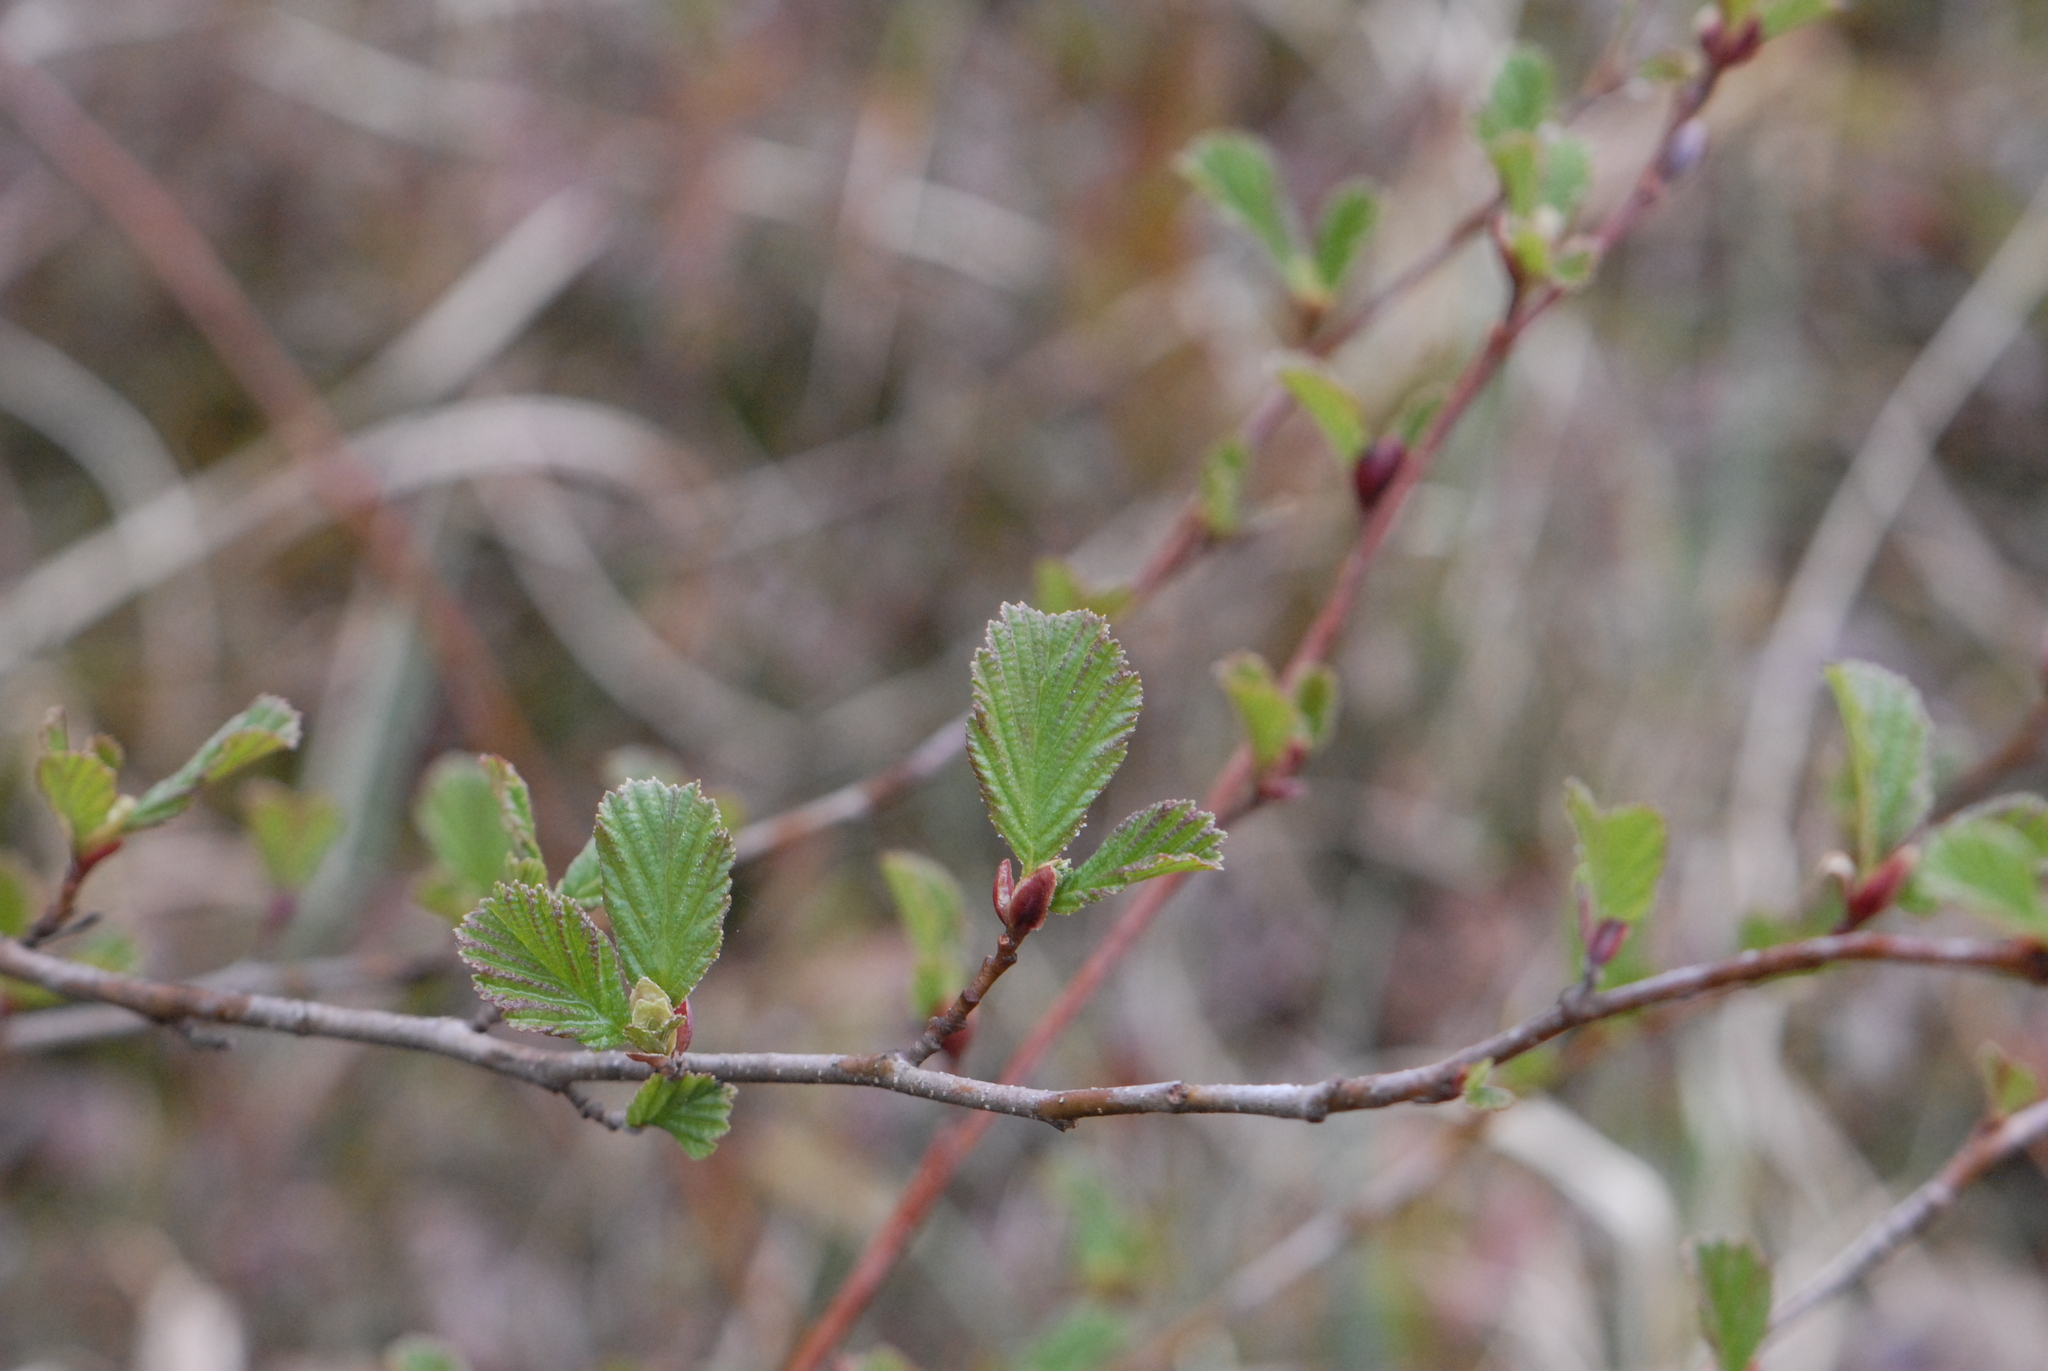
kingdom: Plantae
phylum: Tracheophyta
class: Magnoliopsida
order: Fagales
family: Betulaceae
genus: Alnus
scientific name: Alnus glutinosa
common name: Black alder
